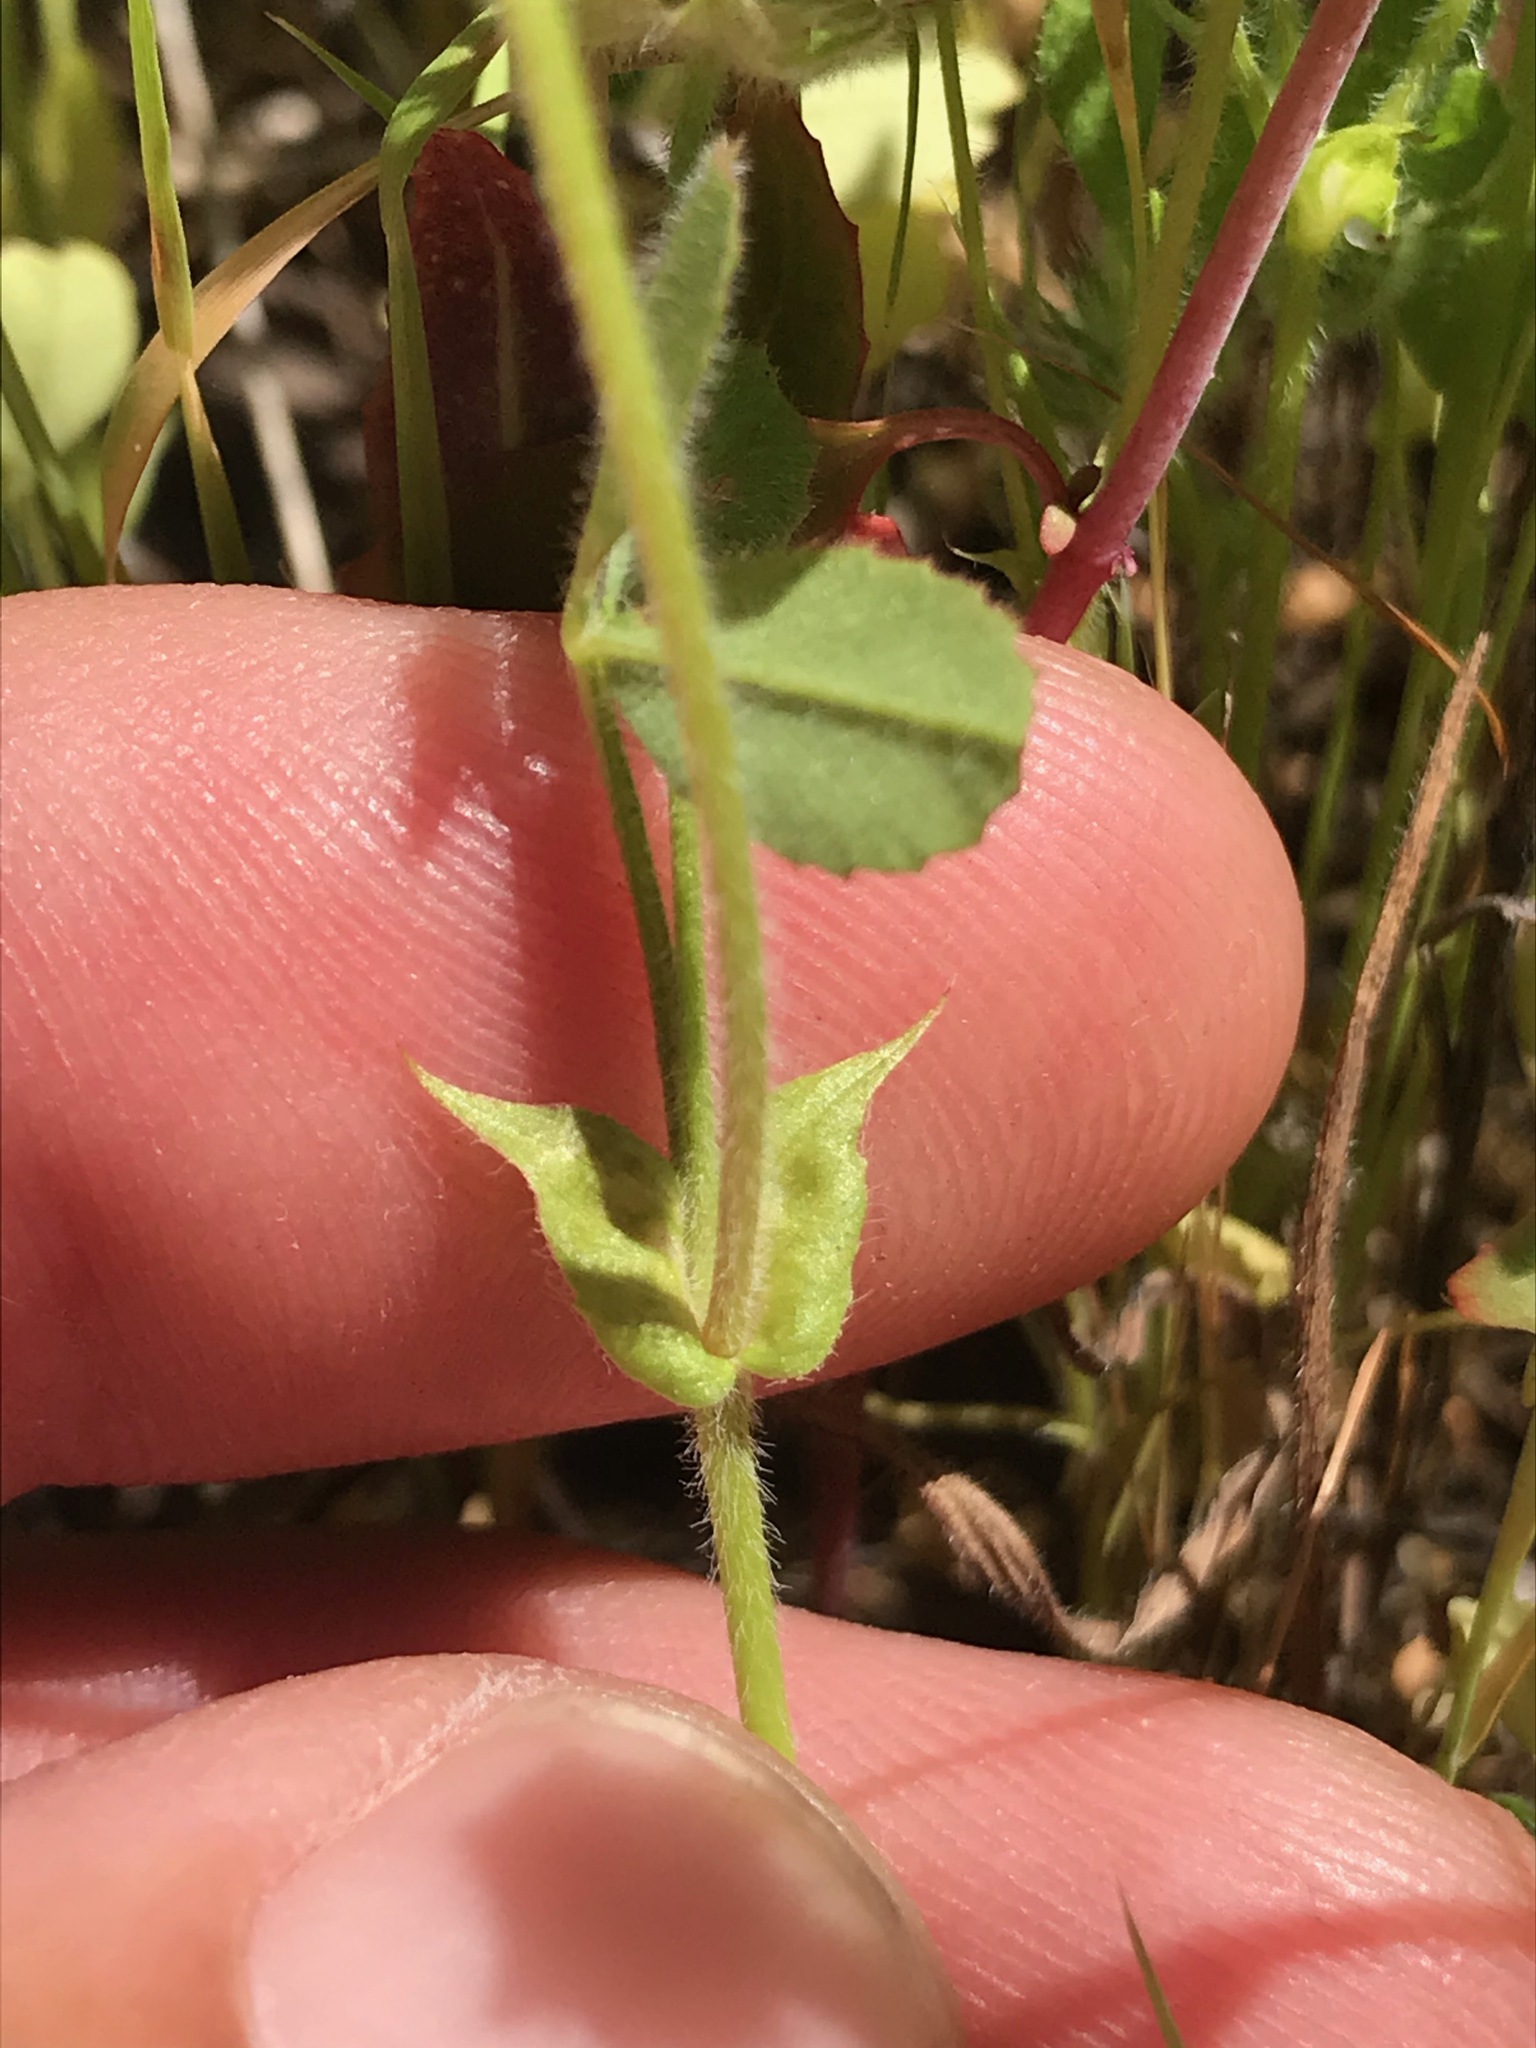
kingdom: Plantae
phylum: Tracheophyta
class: Magnoliopsida
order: Fabales
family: Fabaceae
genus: Trifolium
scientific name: Trifolium microcephalum
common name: Maiden clover
